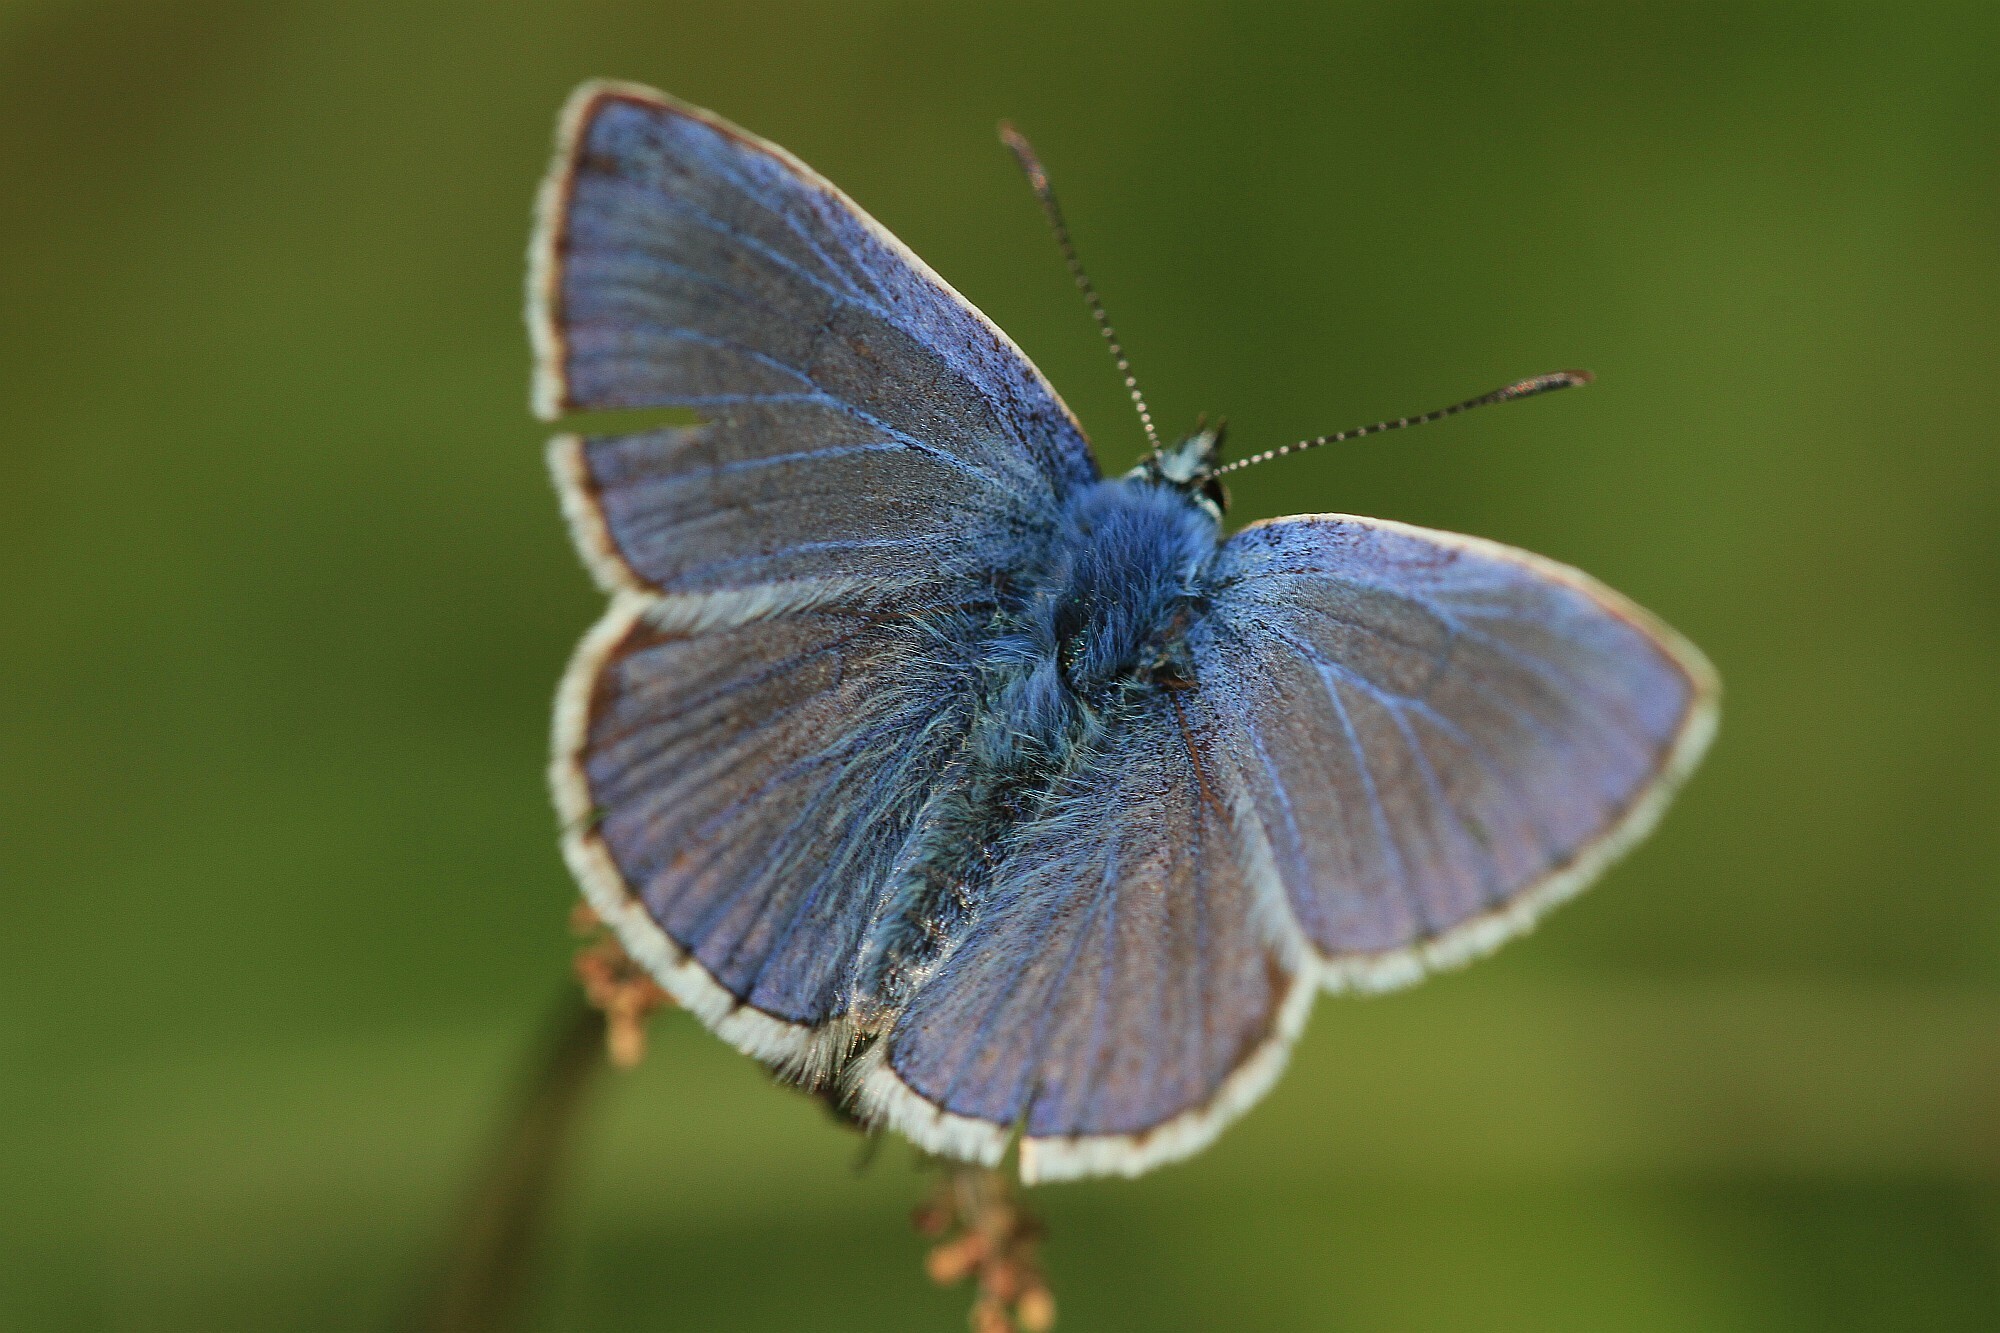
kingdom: Animalia
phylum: Arthropoda
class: Insecta
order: Lepidoptera
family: Lycaenidae
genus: Polyommatus
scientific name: Polyommatus icarus
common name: Common blue
